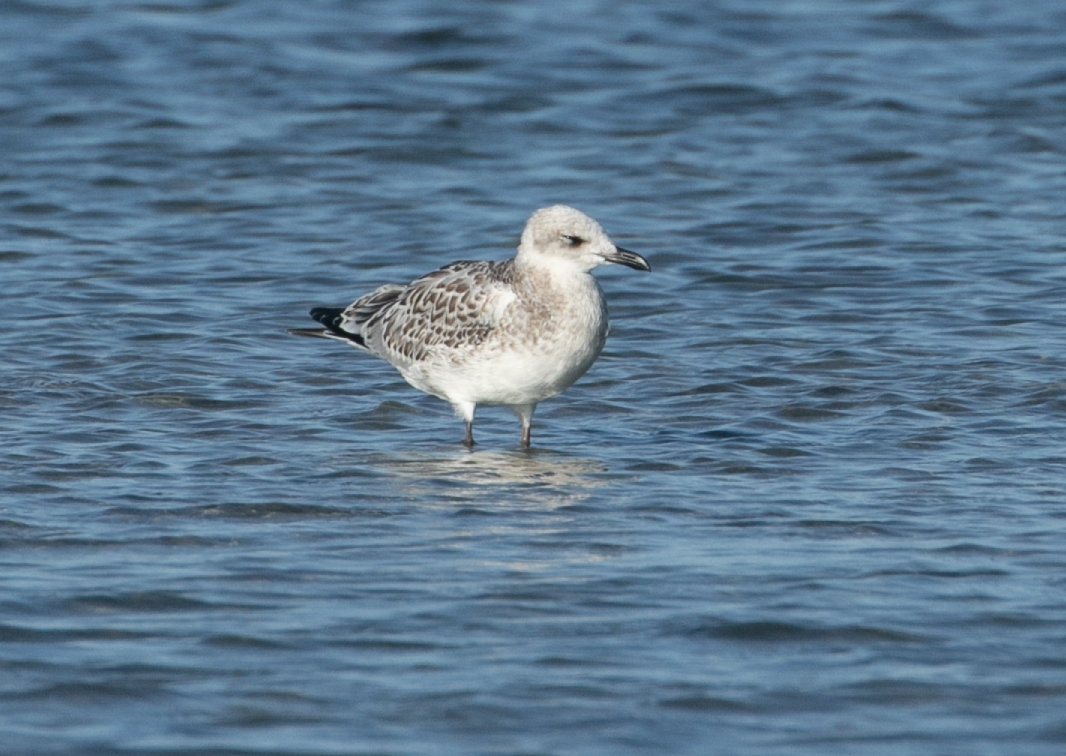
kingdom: Animalia
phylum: Chordata
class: Aves
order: Charadriiformes
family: Laridae
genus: Ichthyaetus
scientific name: Ichthyaetus melanocephalus
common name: Mediterranean gull
